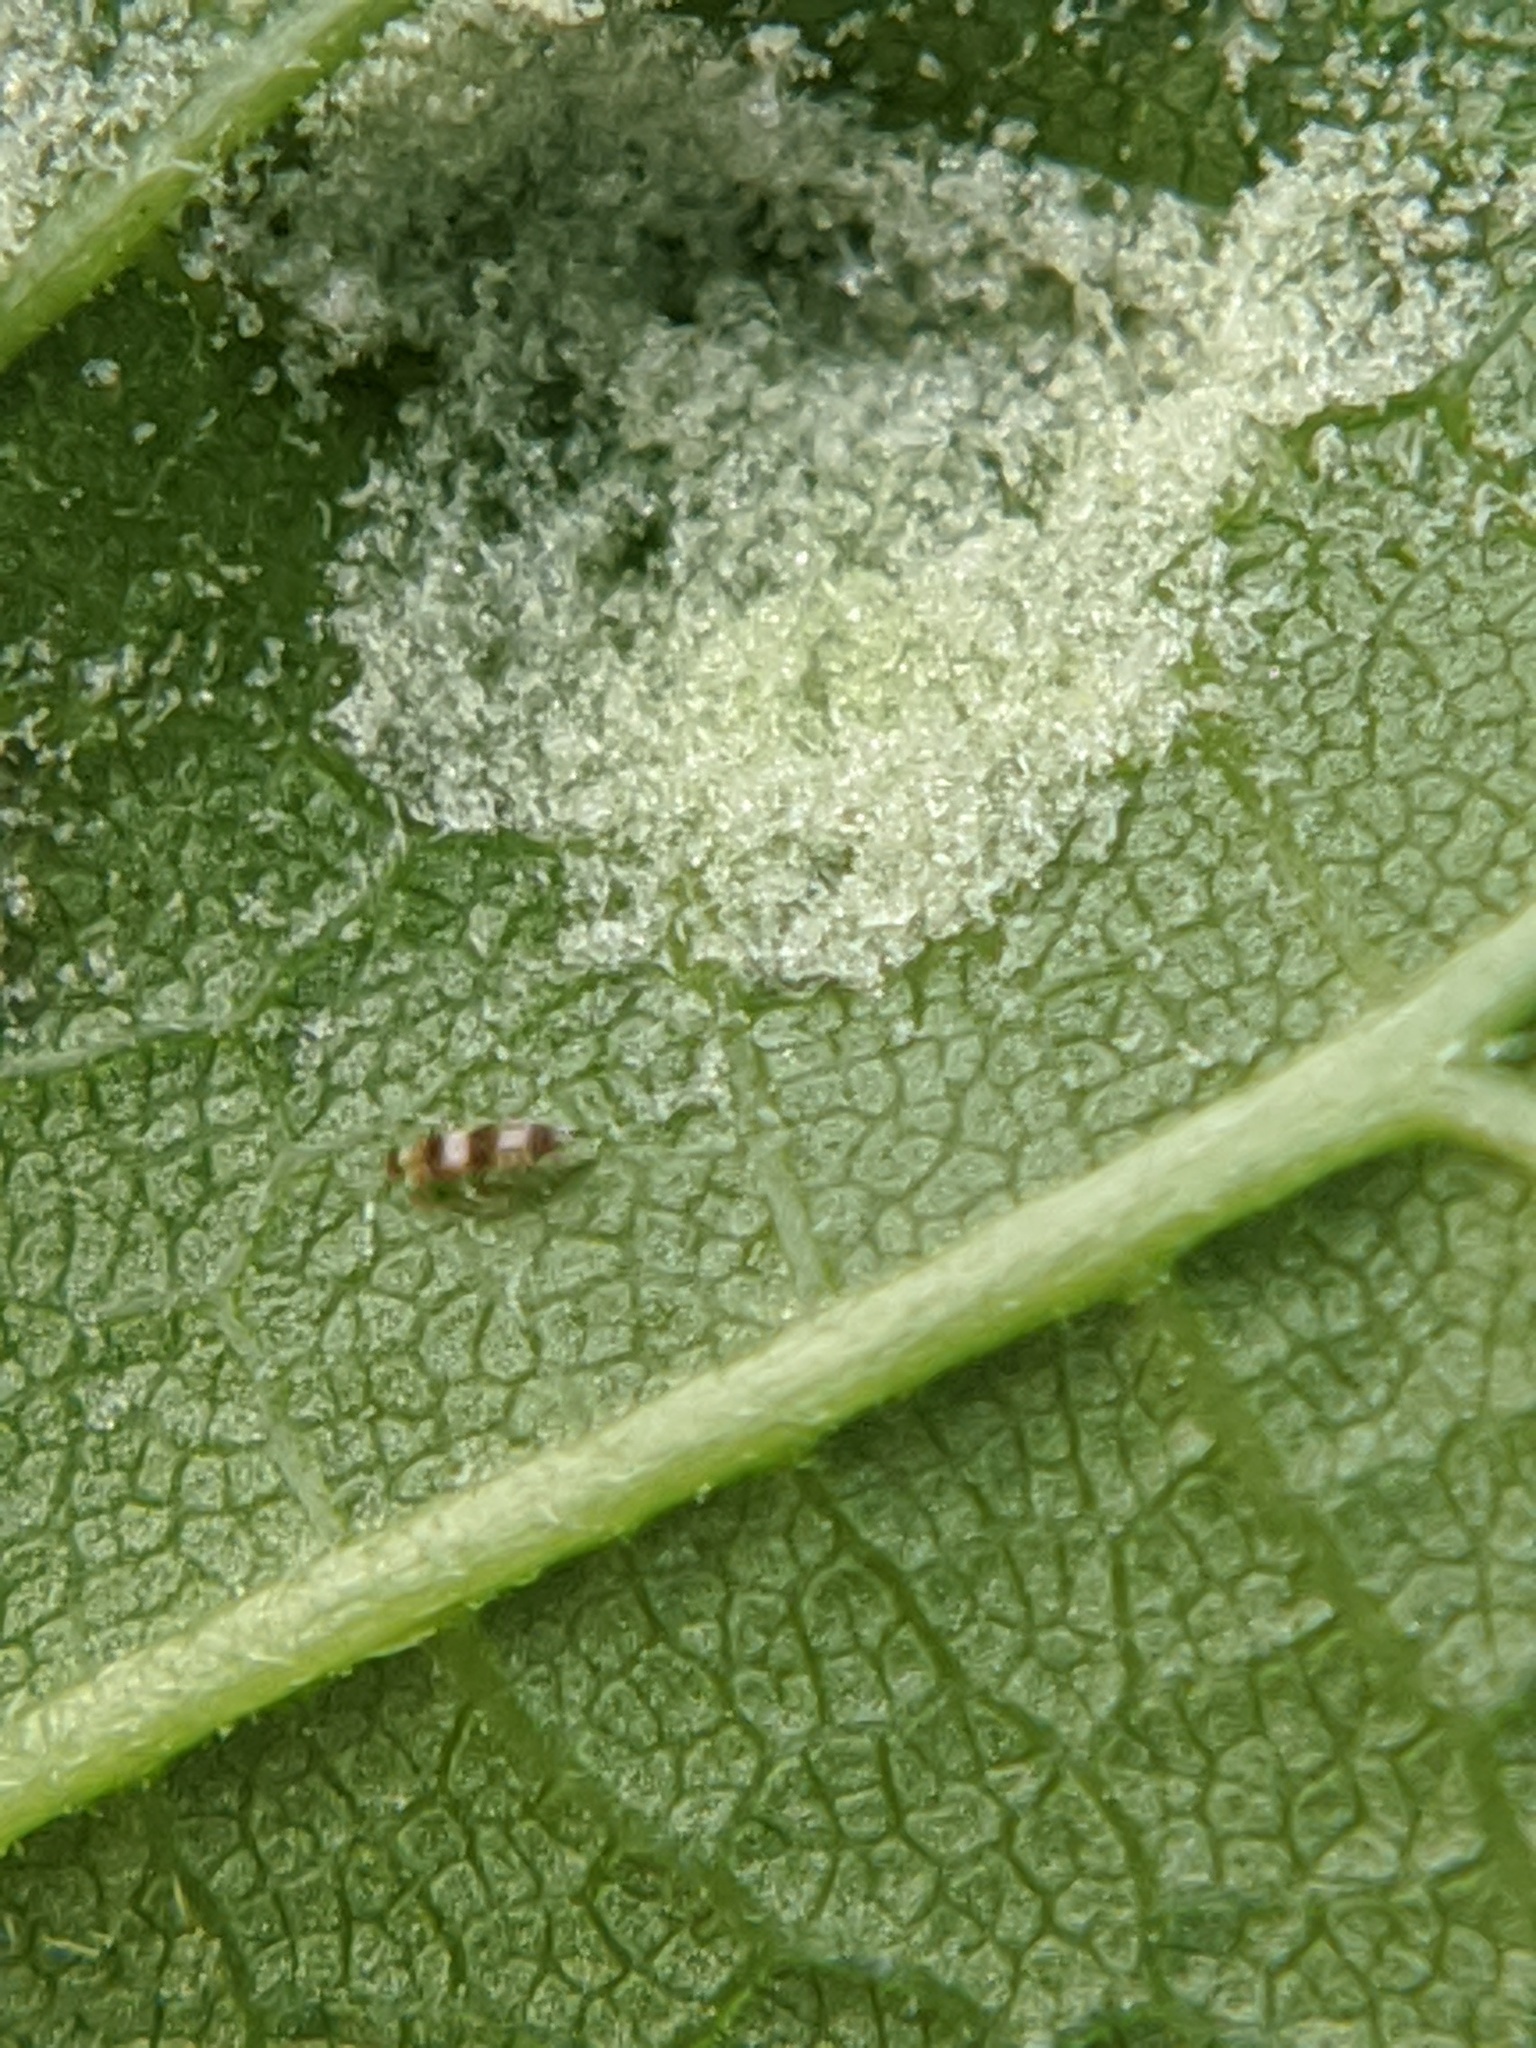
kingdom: Animalia
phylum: Arthropoda
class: Arachnida
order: Trombidiformes
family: Eriophyidae
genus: Aceria
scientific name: Aceria
